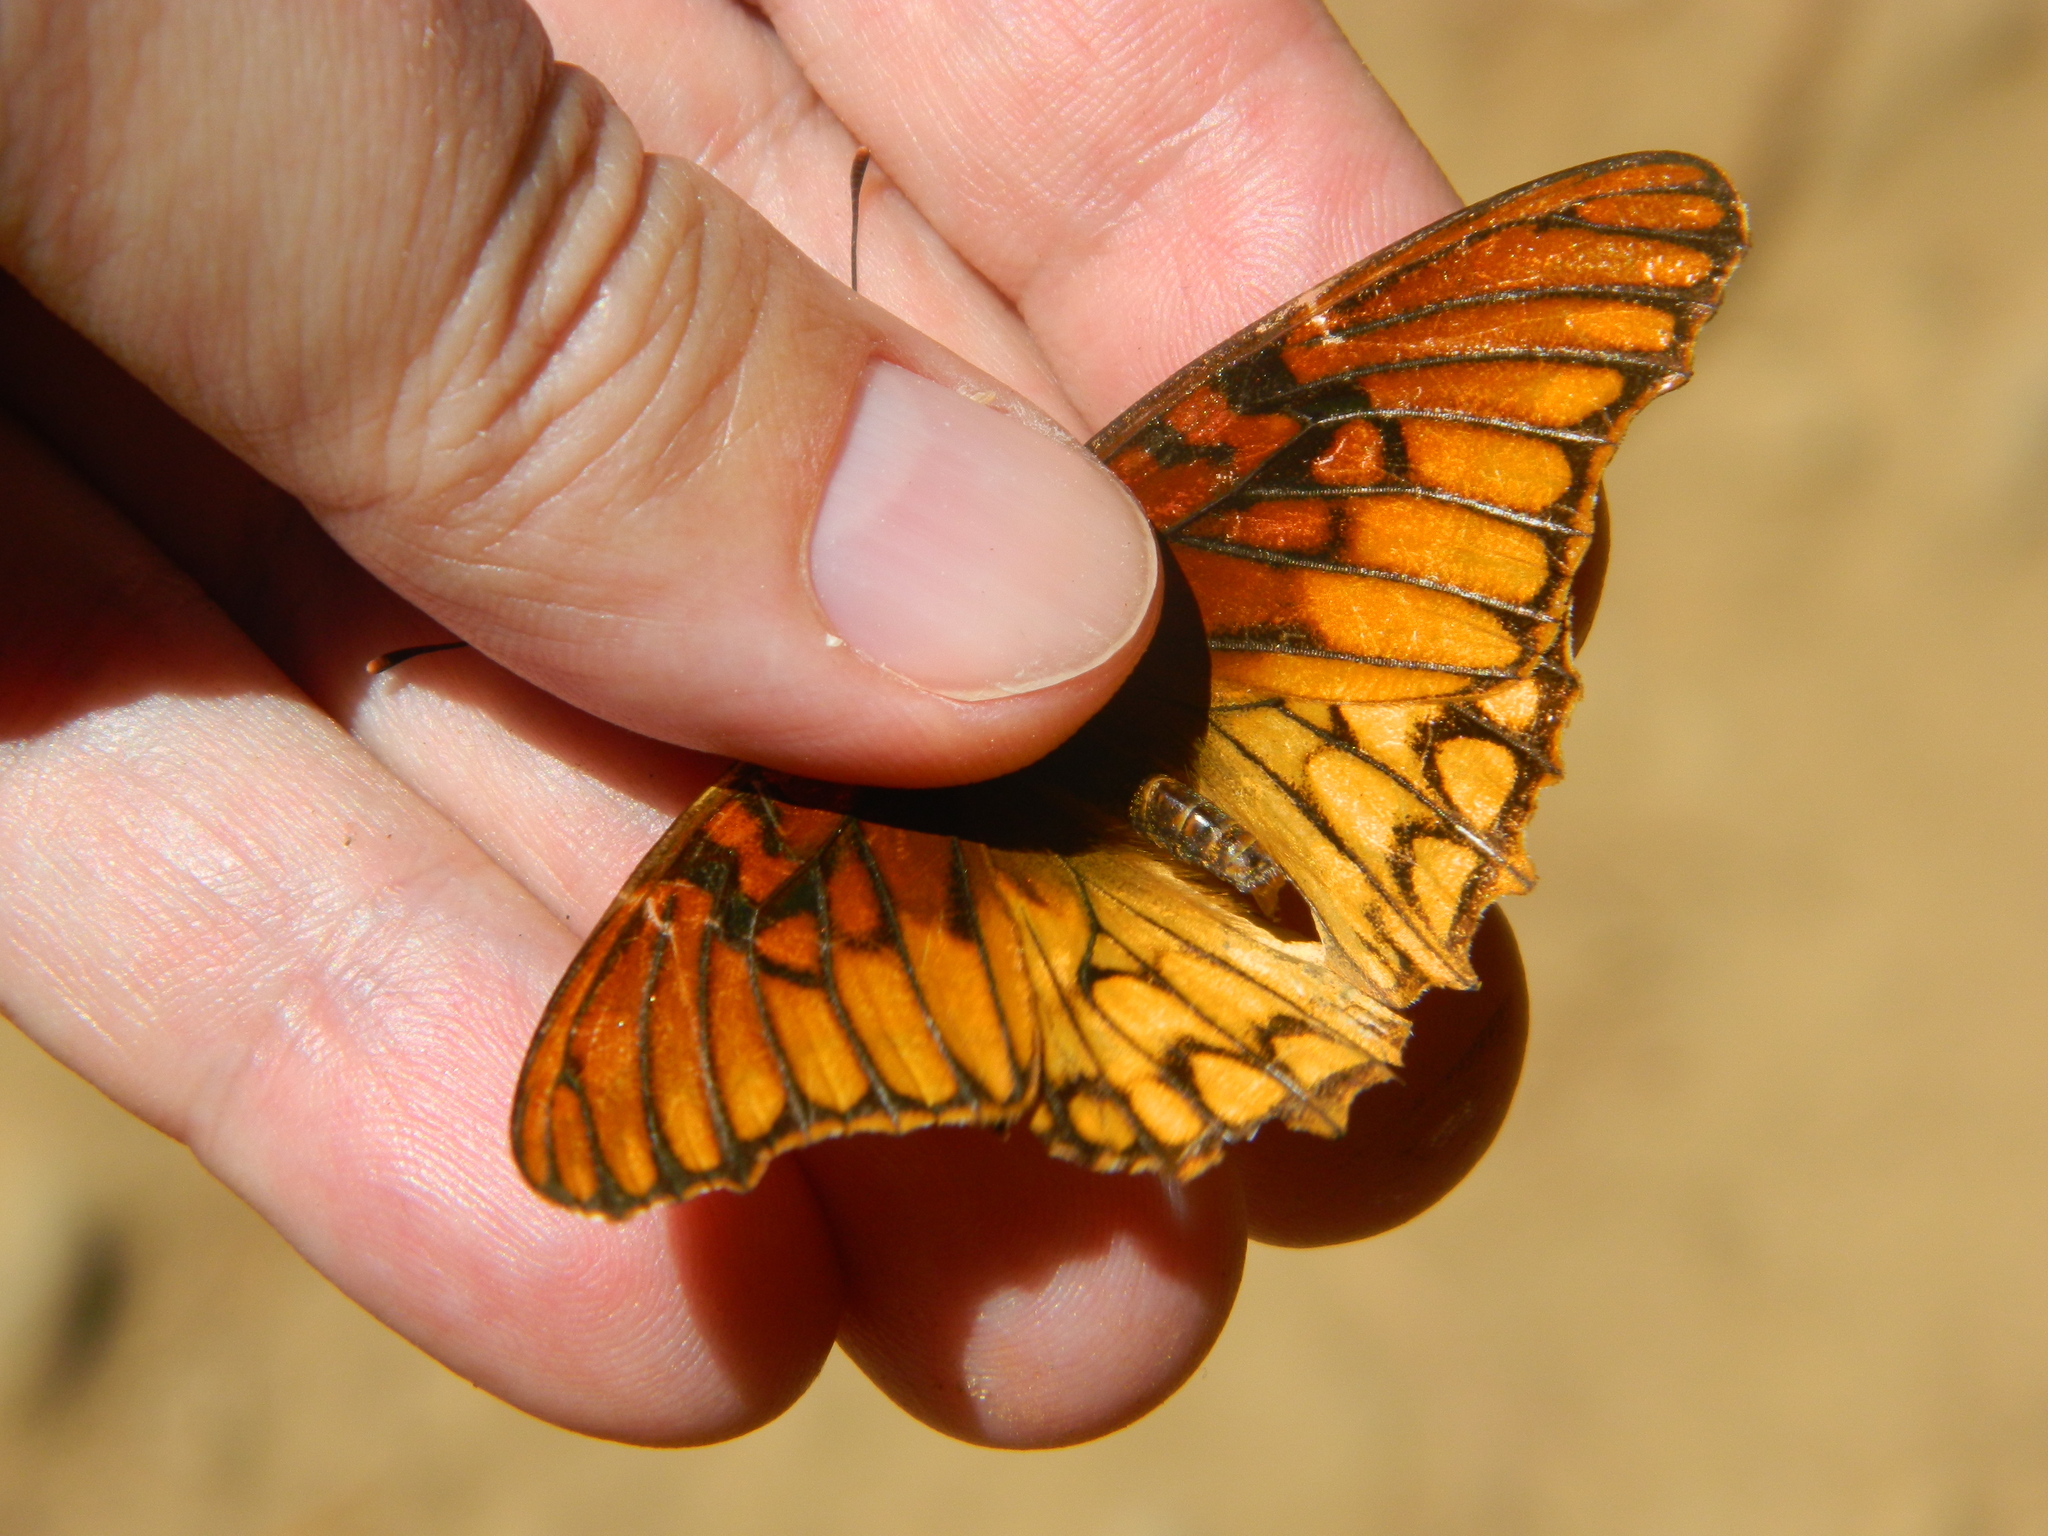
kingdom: Animalia
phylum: Arthropoda
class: Insecta
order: Lepidoptera
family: Nymphalidae
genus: Dione
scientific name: Dione moneta
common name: Mexican silverspot
